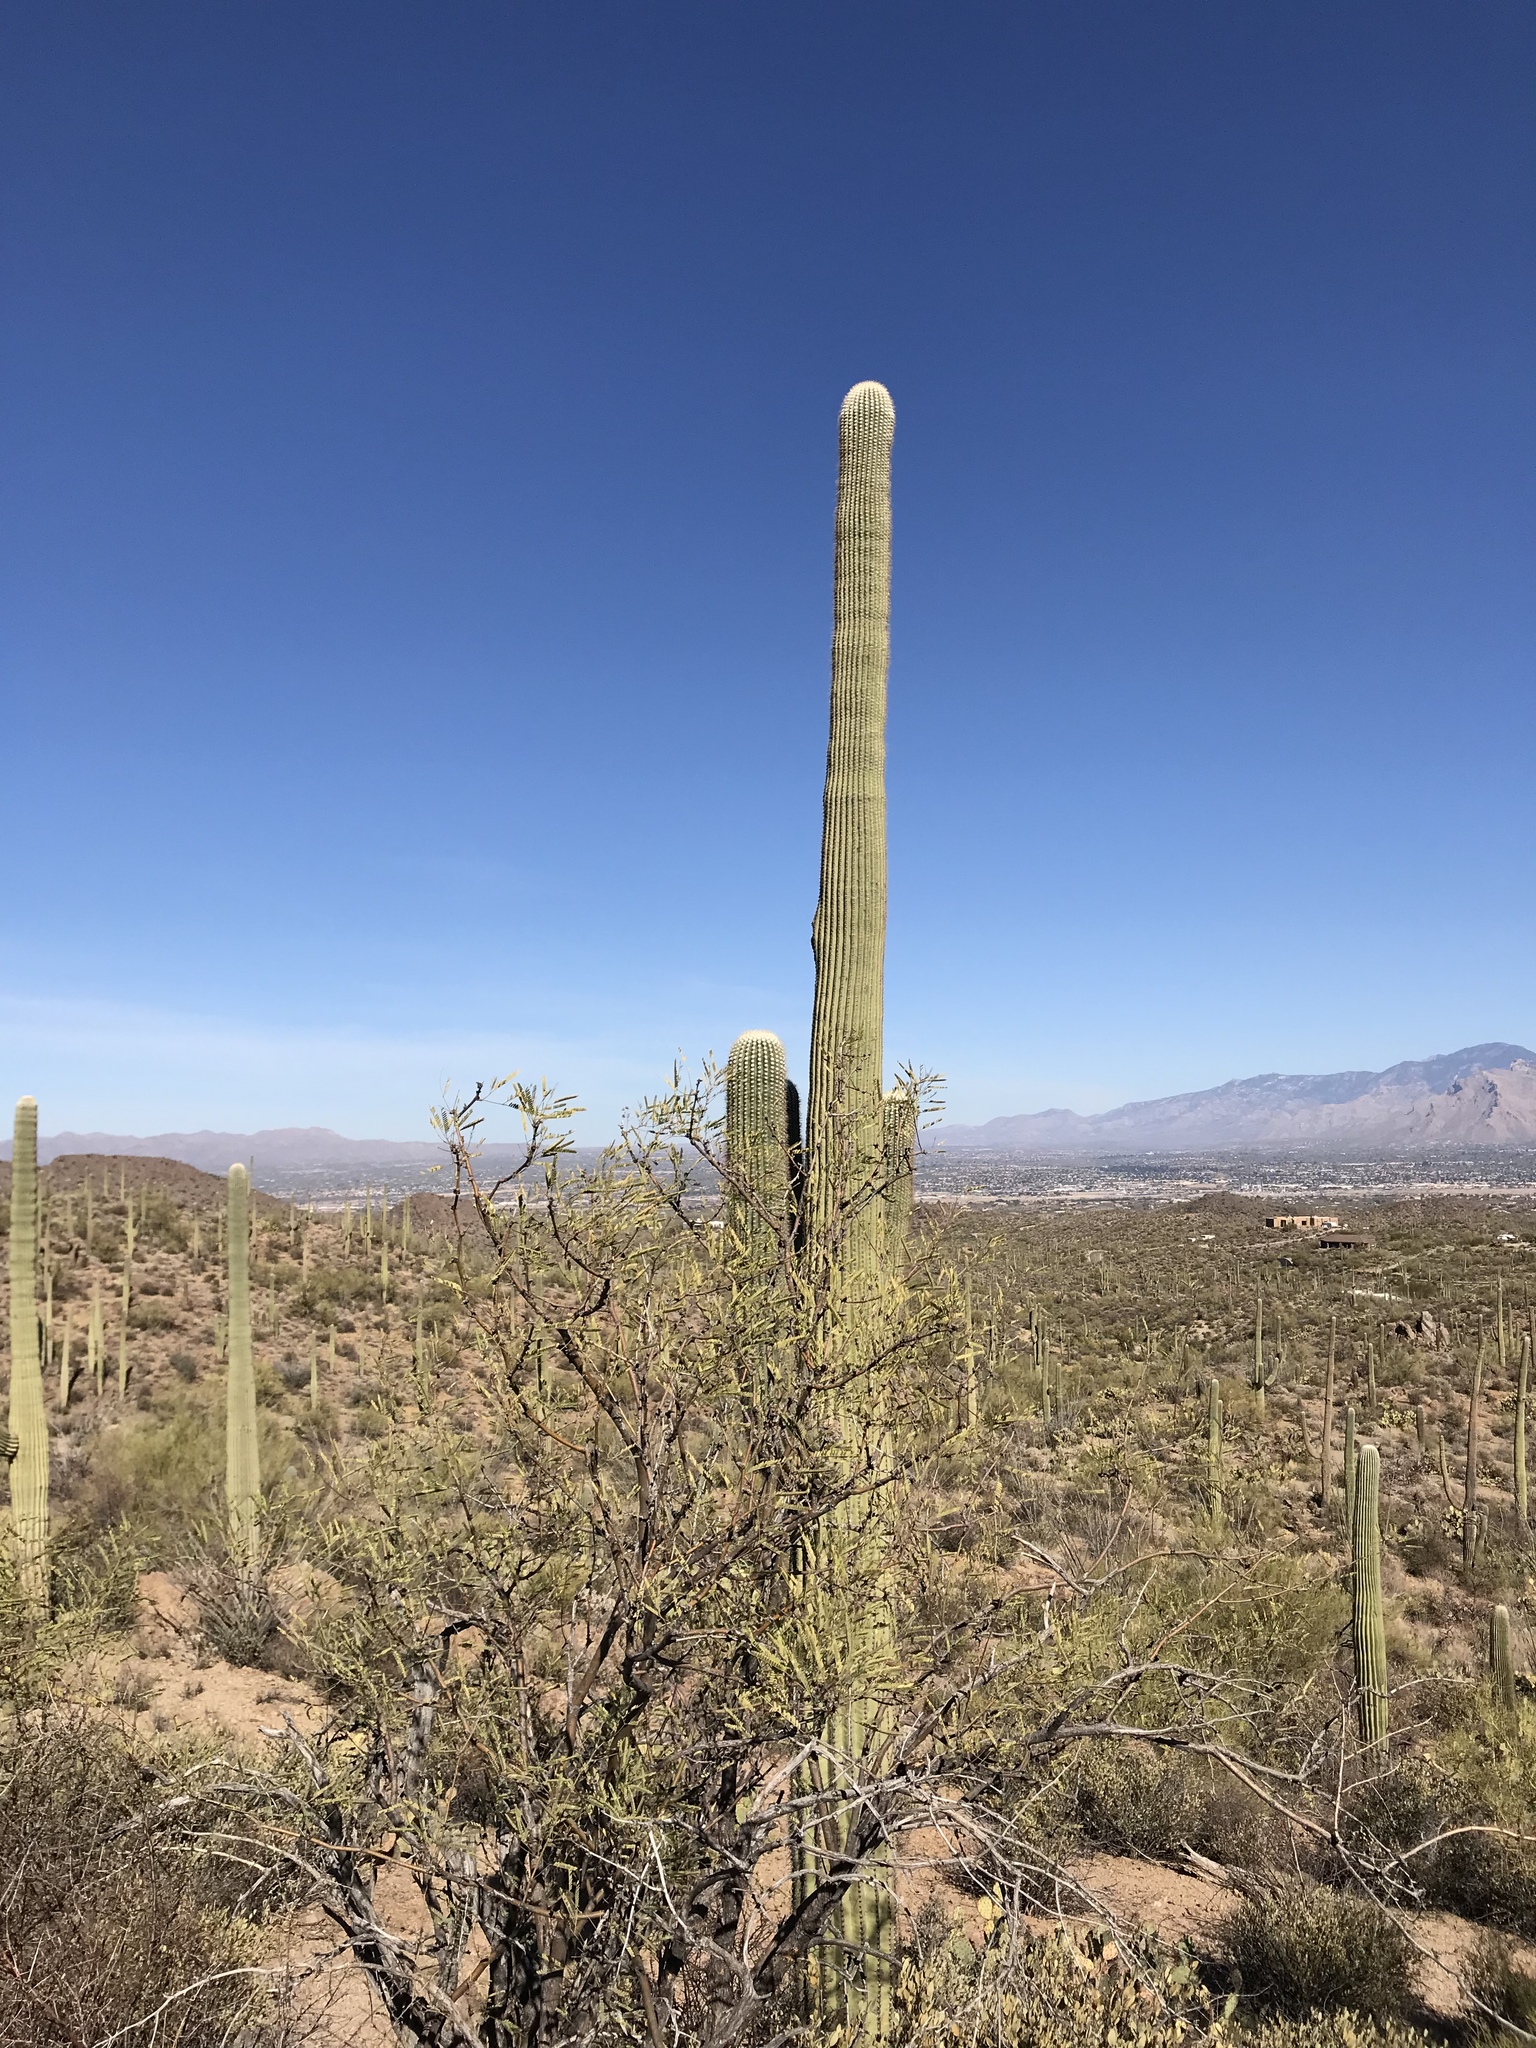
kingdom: Plantae
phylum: Tracheophyta
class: Magnoliopsida
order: Caryophyllales
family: Cactaceae
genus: Carnegiea
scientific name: Carnegiea gigantea
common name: Saguaro
